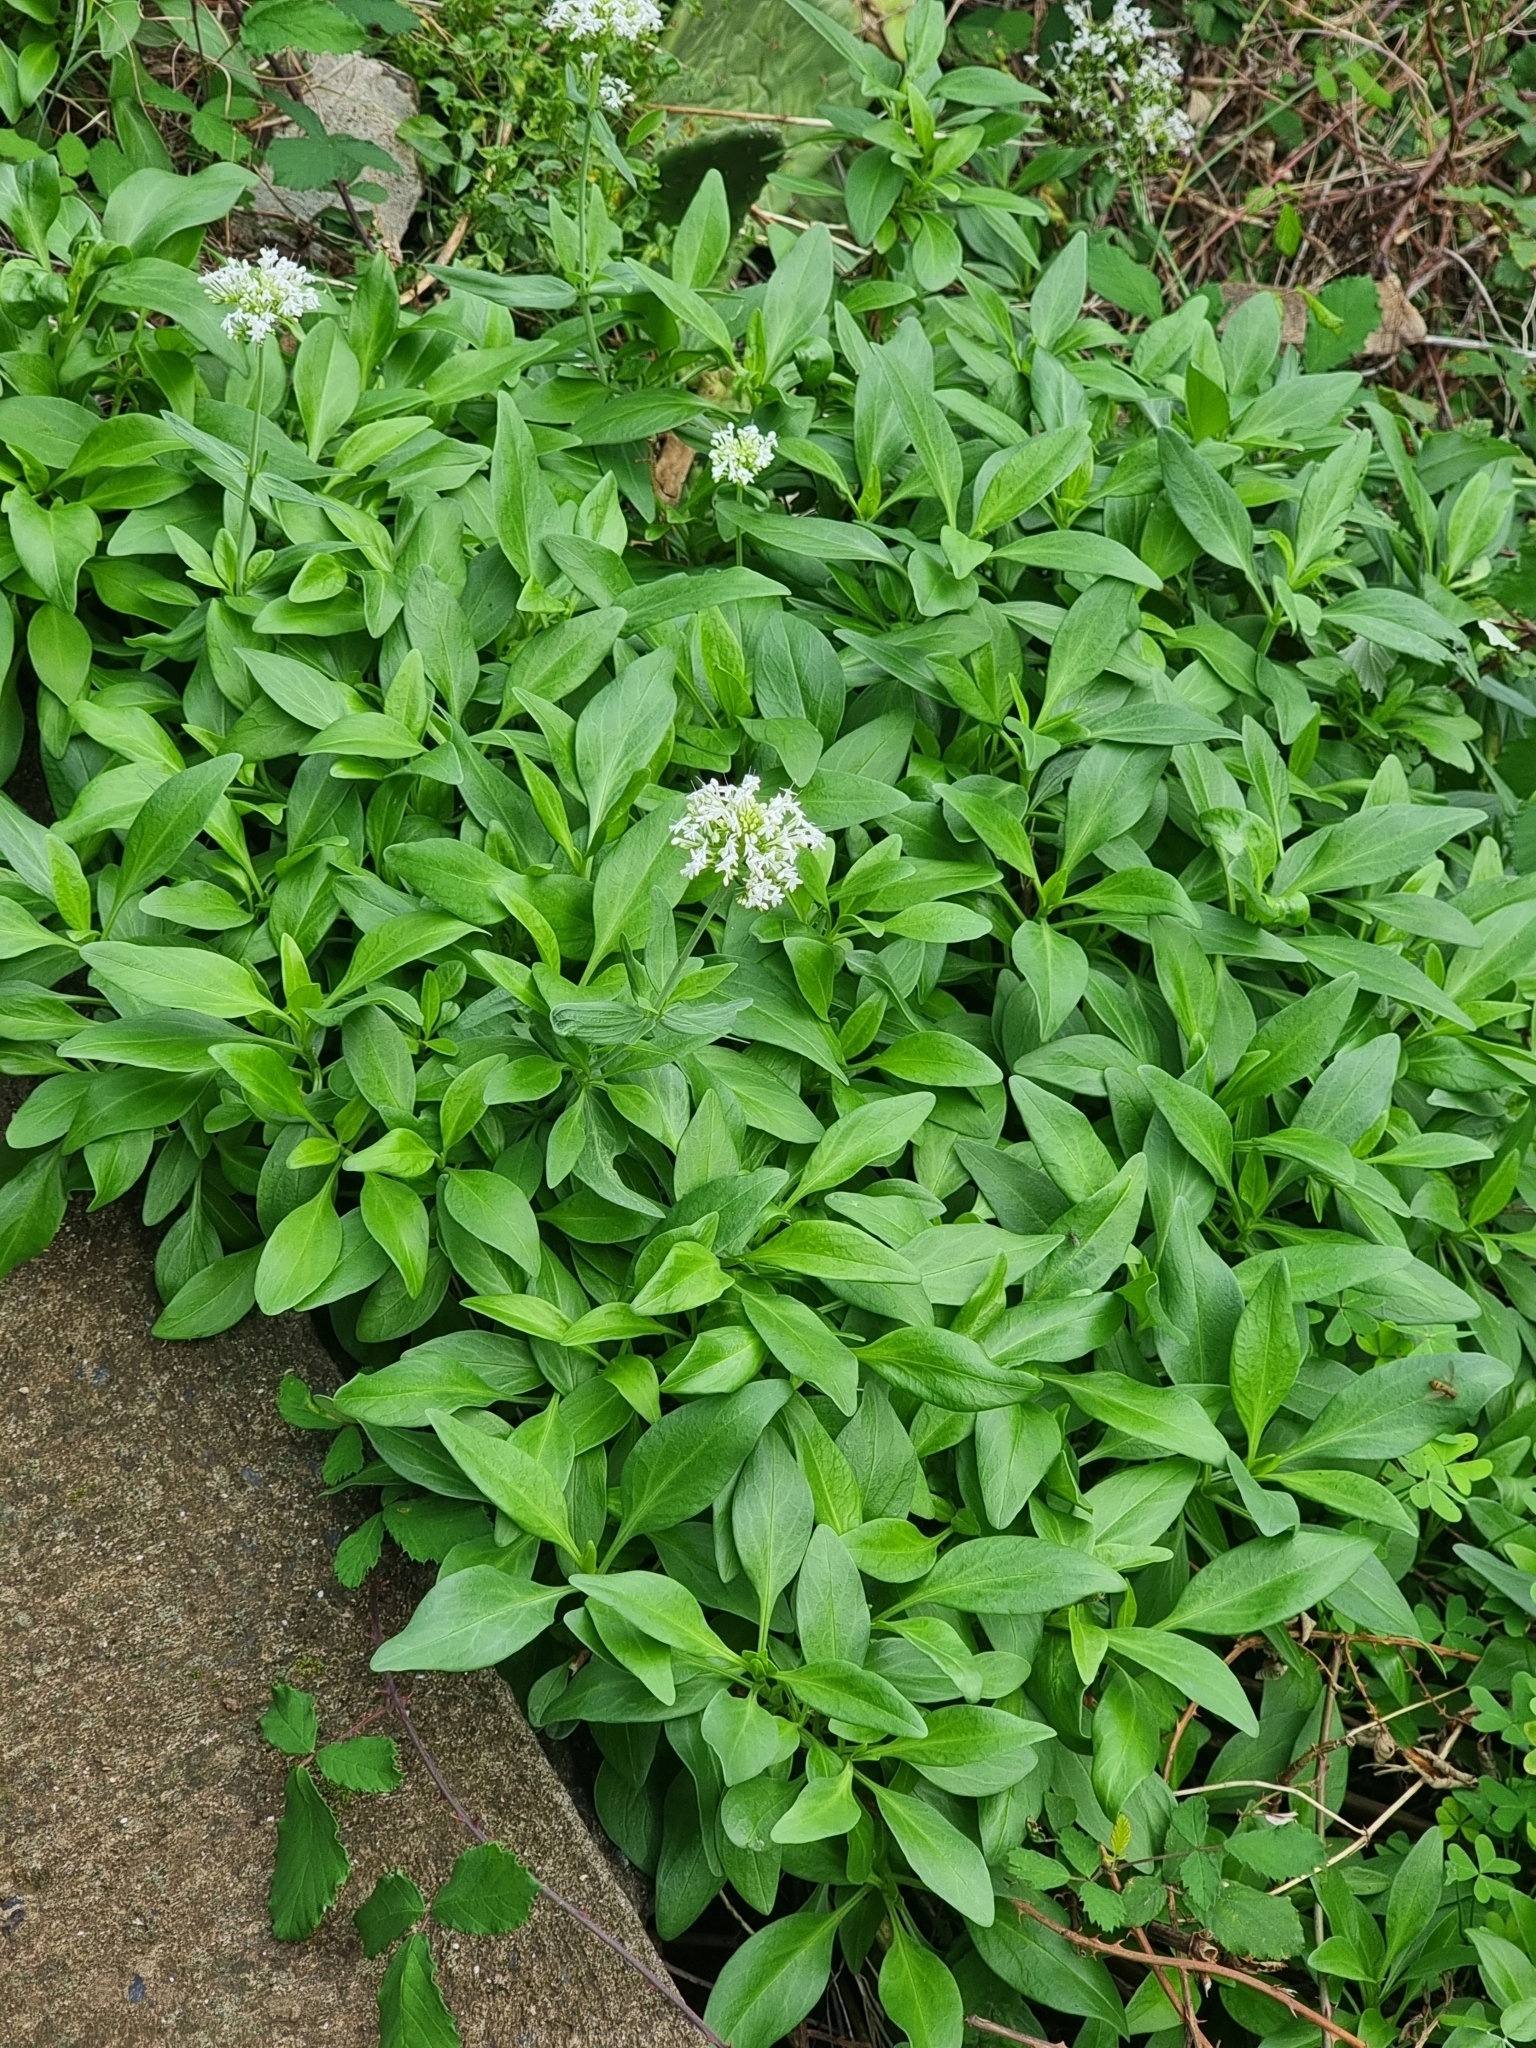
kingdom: Plantae
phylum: Tracheophyta
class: Magnoliopsida
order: Dipsacales
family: Caprifoliaceae
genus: Centranthus
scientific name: Centranthus ruber
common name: Red valerian
